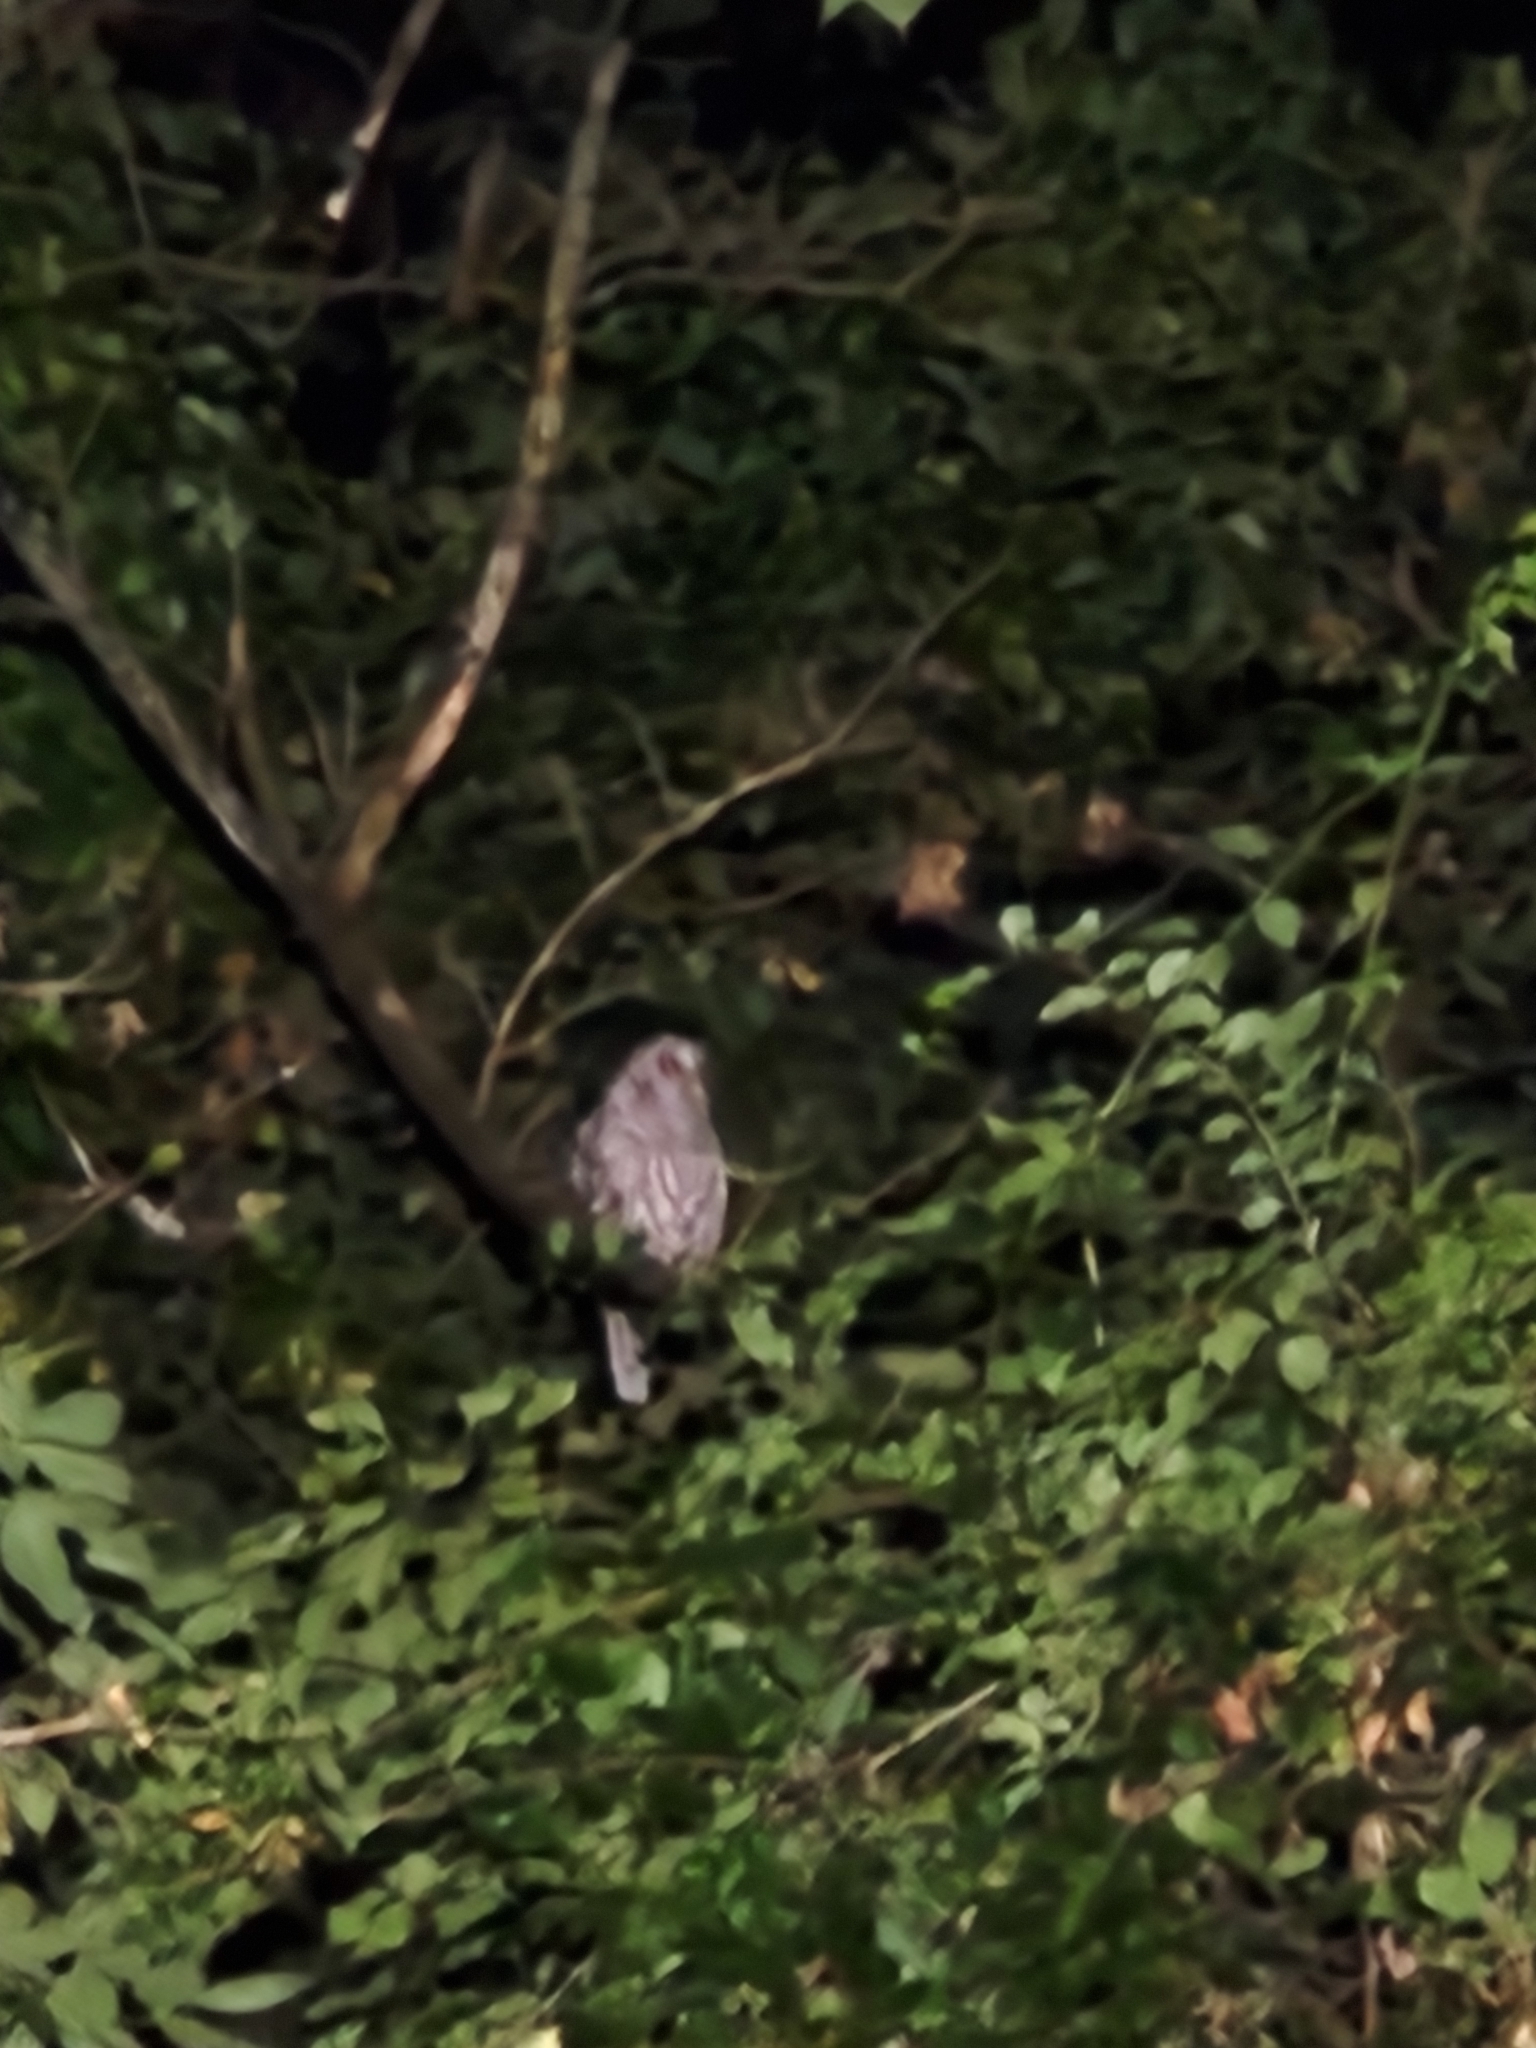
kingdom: Animalia
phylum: Chordata
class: Aves
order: Strigiformes
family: Strigidae
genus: Strix
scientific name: Strix varia
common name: Barred owl
